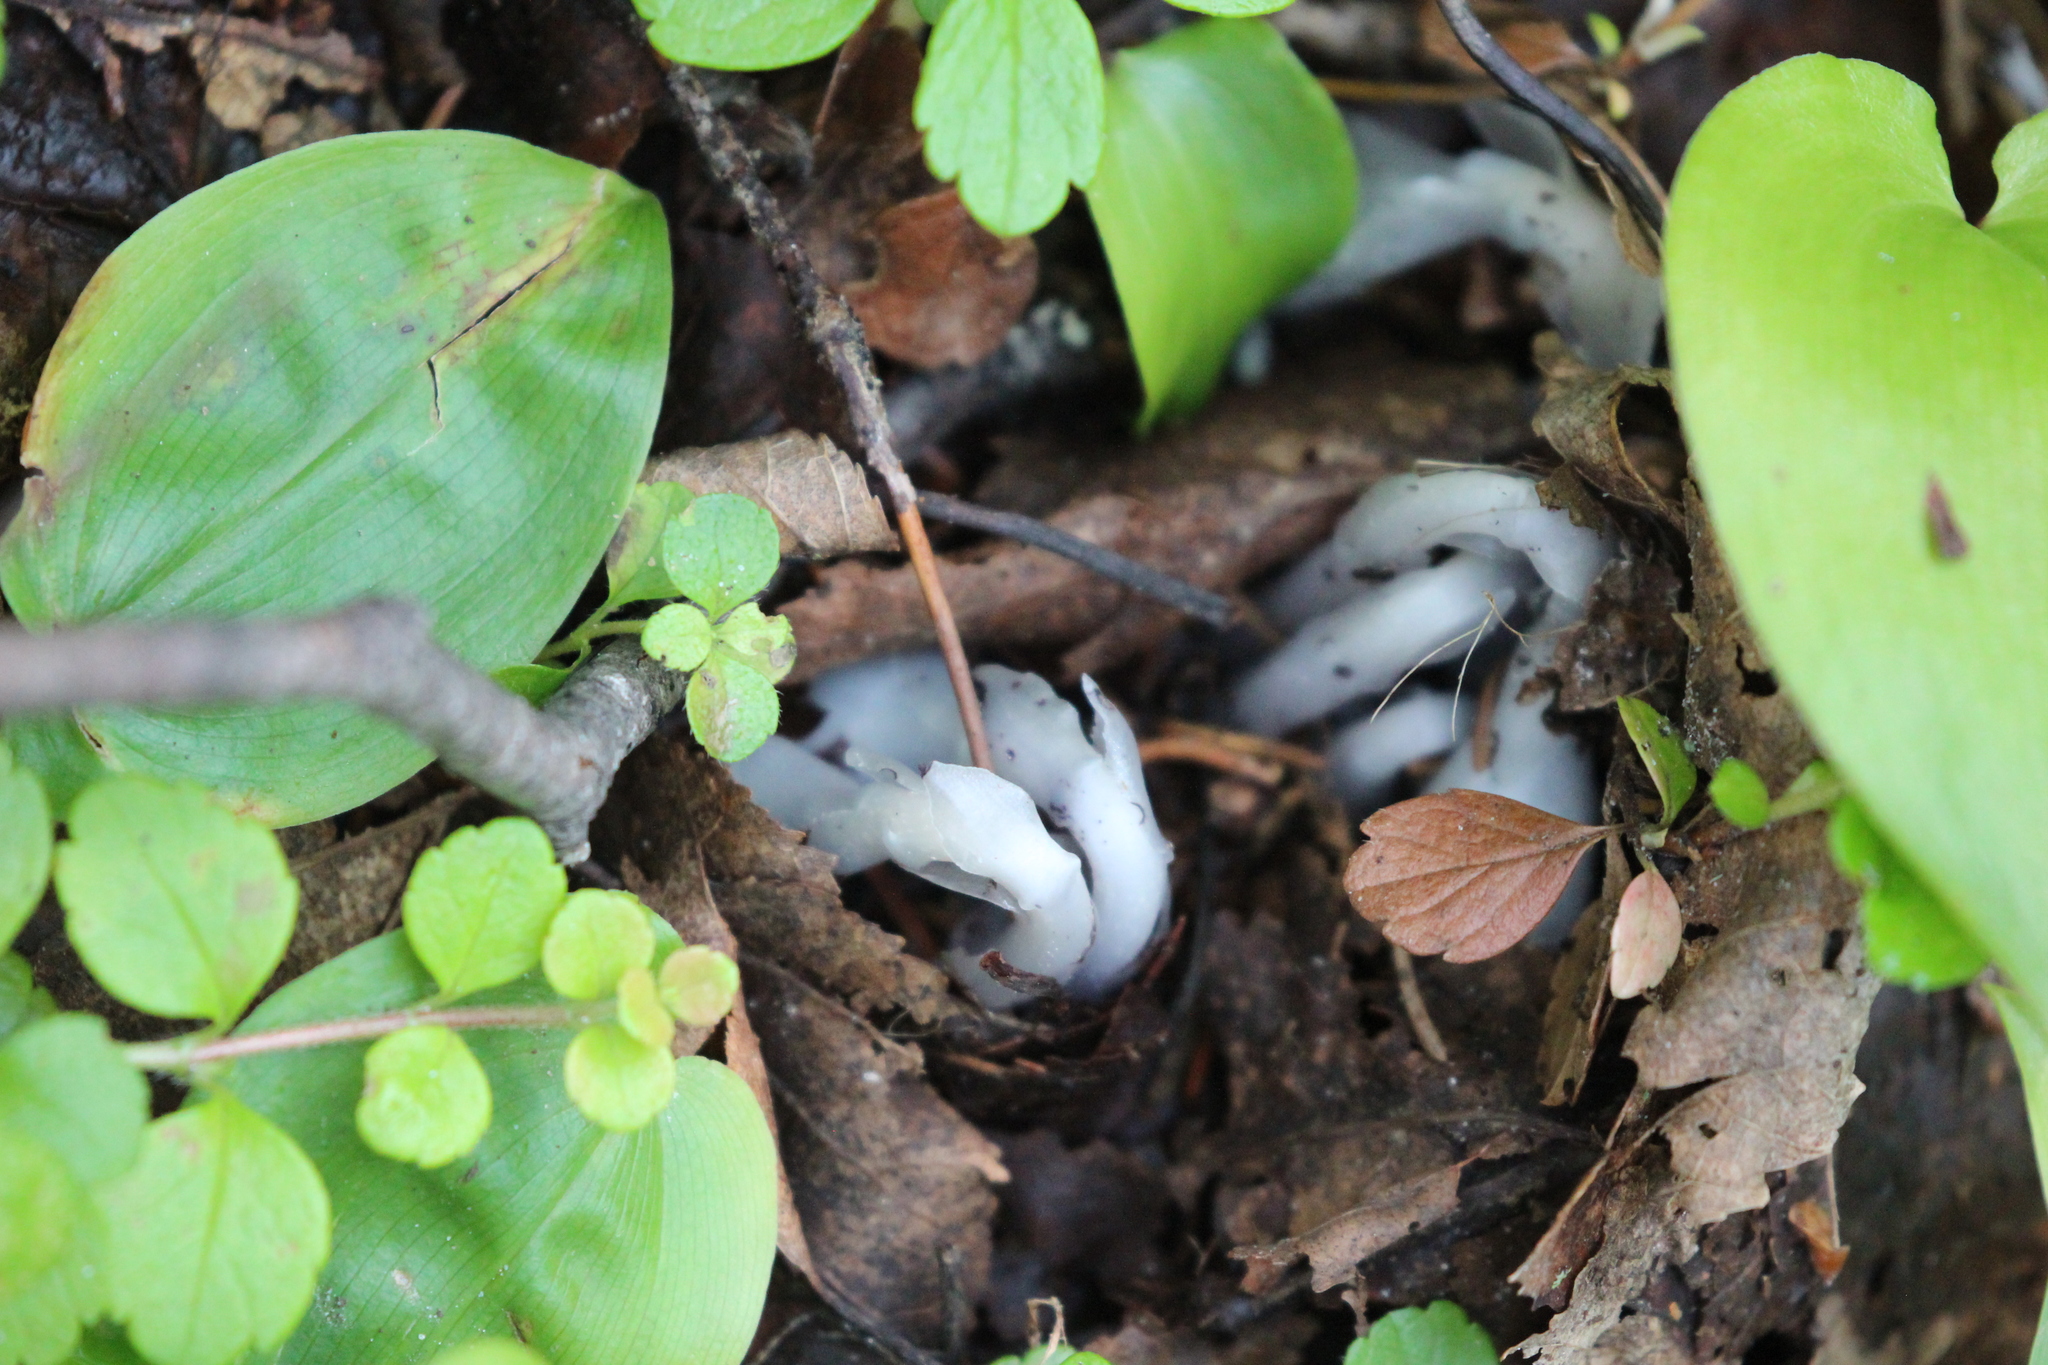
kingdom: Plantae
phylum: Tracheophyta
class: Magnoliopsida
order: Ericales
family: Ericaceae
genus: Monotropa
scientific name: Monotropa uniflora
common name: Convulsion root
